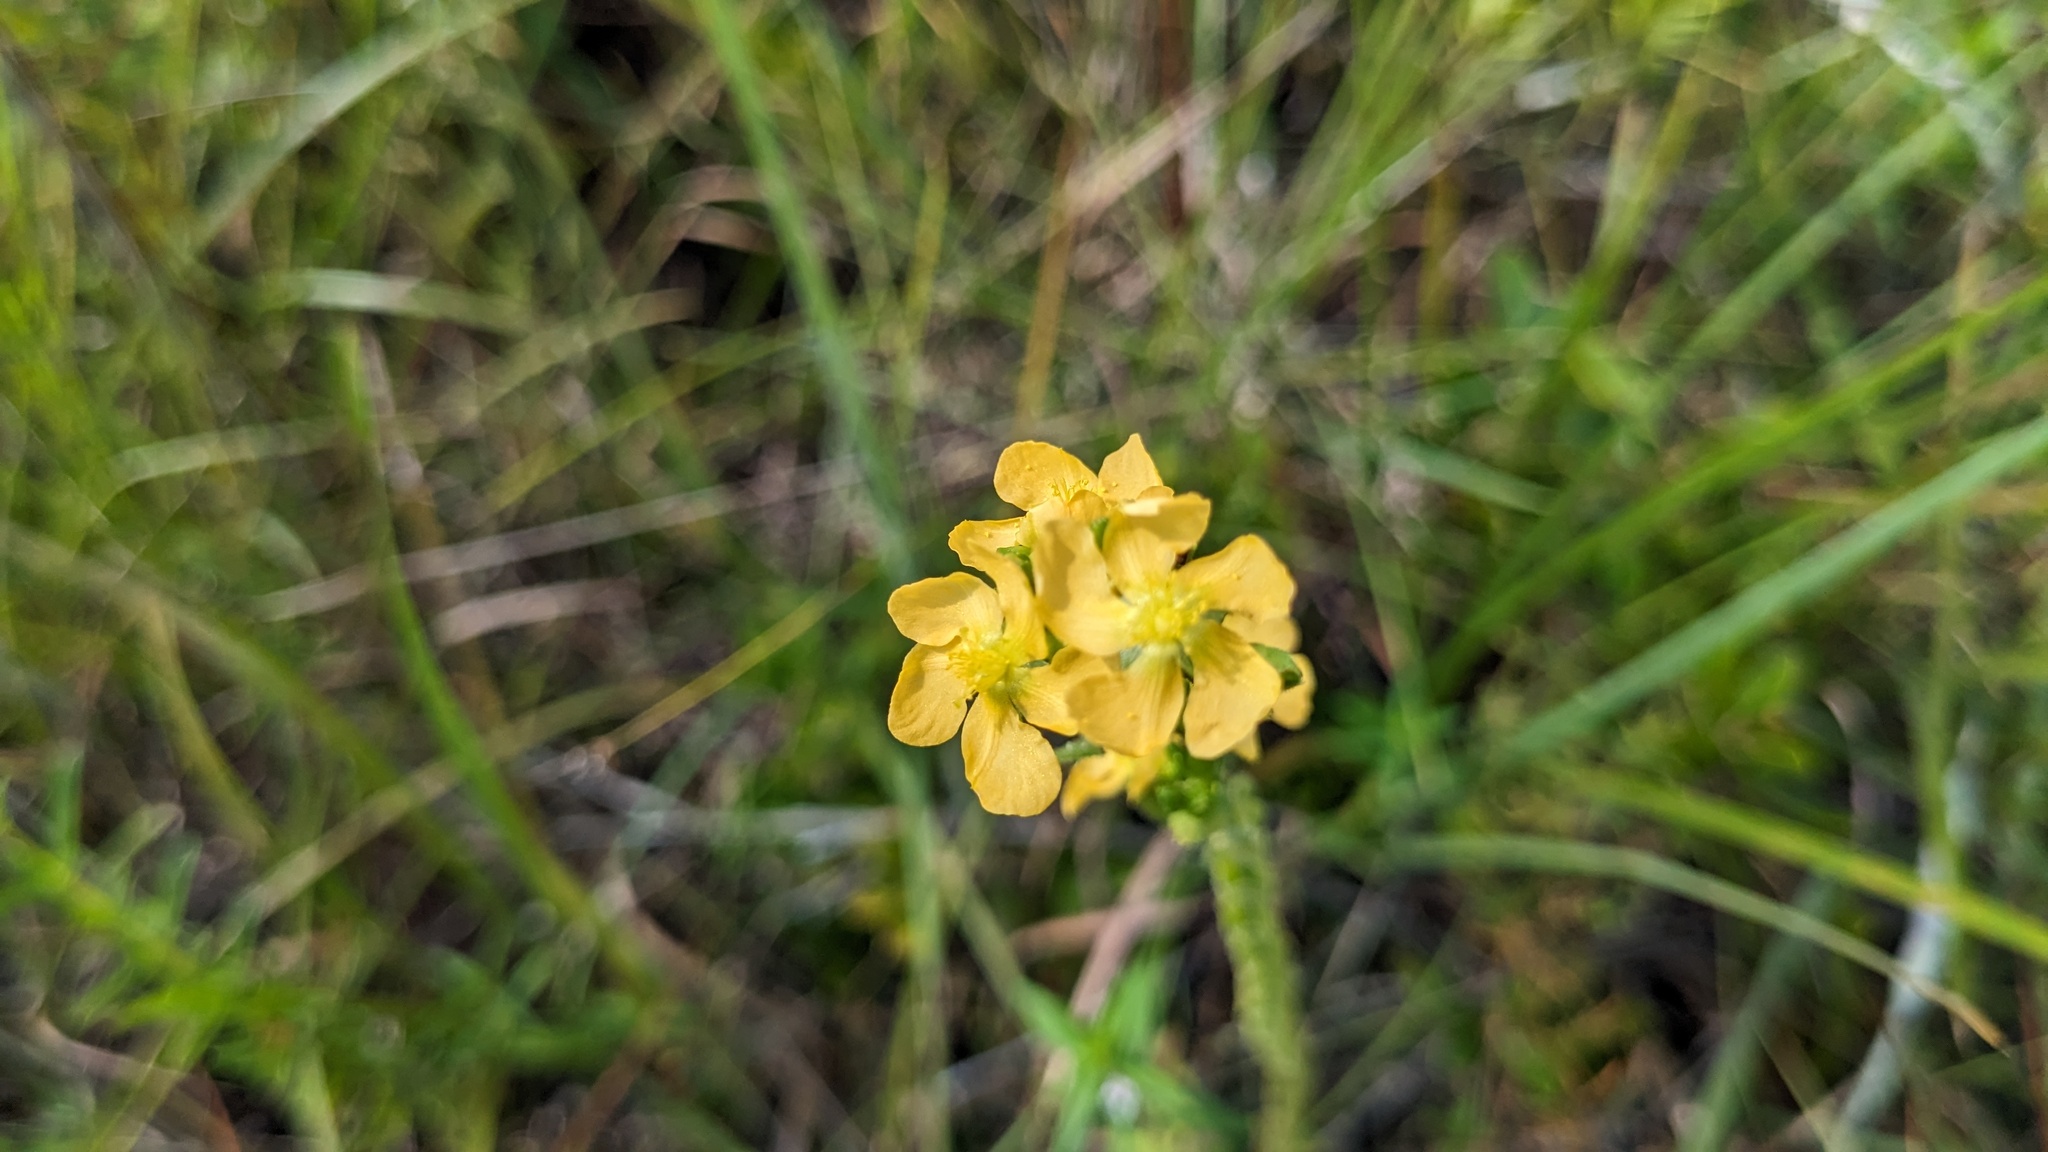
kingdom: Plantae
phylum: Tracheophyta
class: Magnoliopsida
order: Malpighiales
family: Hypericaceae
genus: Hypericum
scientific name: Hypericum setosum
